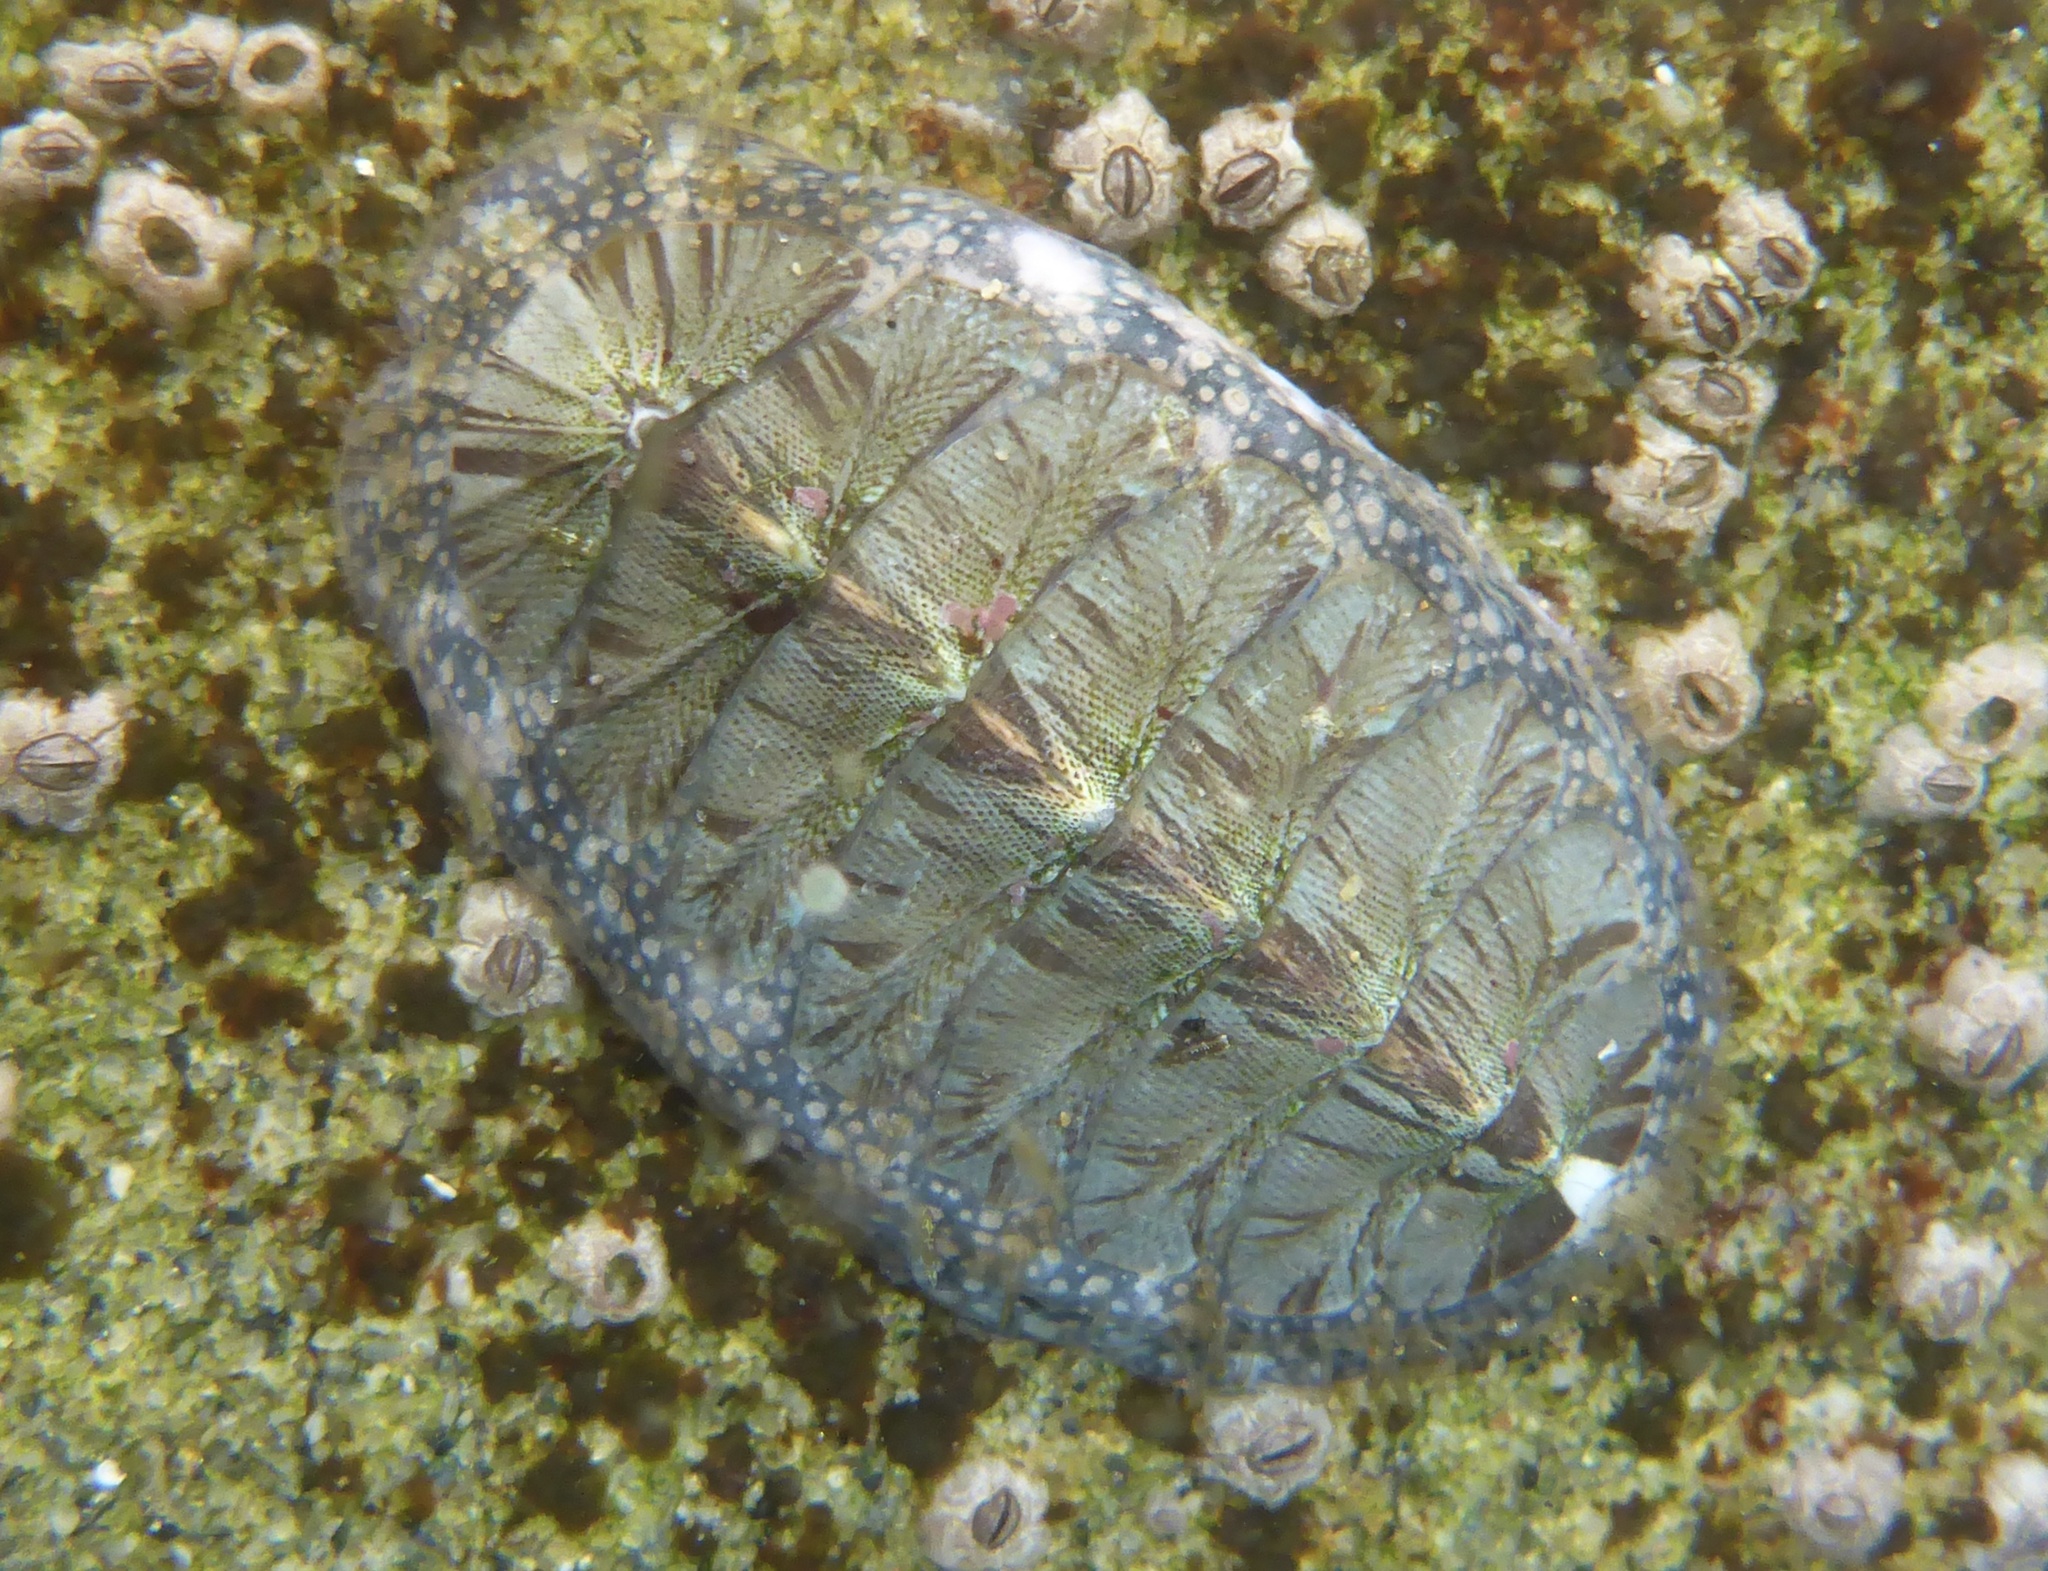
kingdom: Animalia
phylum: Mollusca
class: Polyplacophora
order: Chitonida
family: Mopaliidae
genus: Mopalia
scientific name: Mopalia lignosa
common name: Woody chiton
